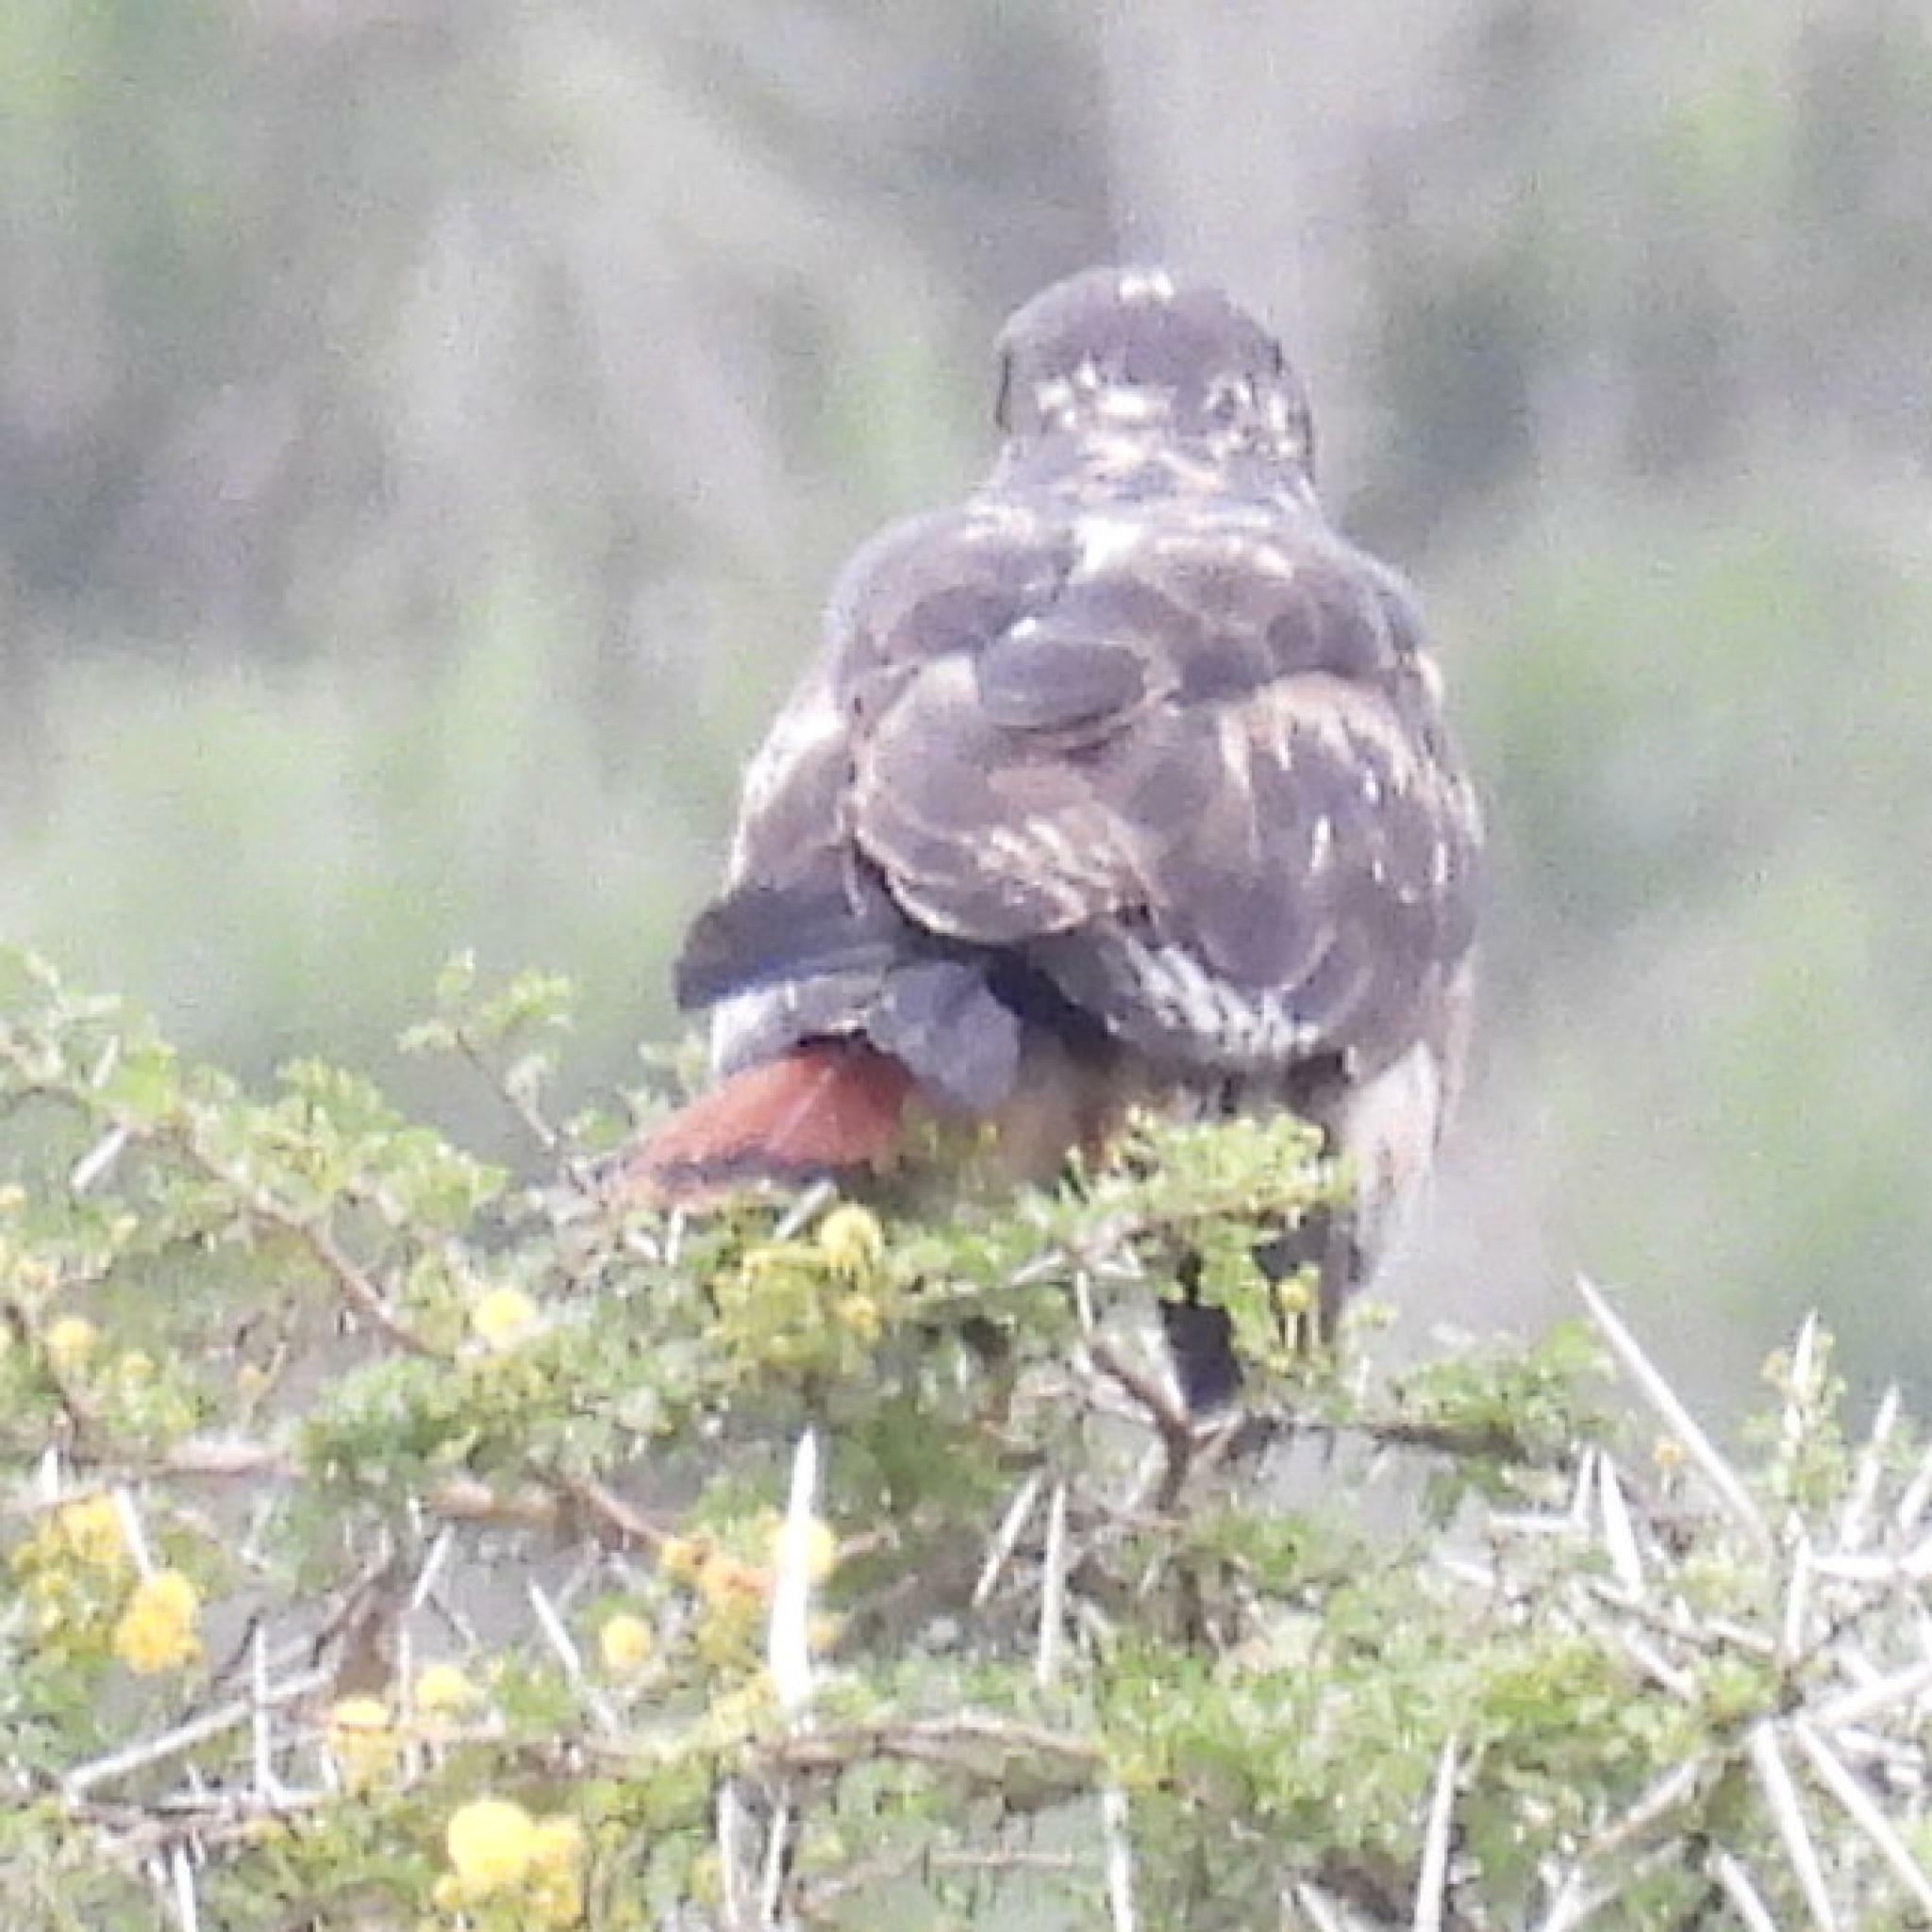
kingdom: Animalia
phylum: Chordata
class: Aves
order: Accipitriformes
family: Accipitridae
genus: Buteo
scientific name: Buteo rufofuscus
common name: Jackal buzzard
